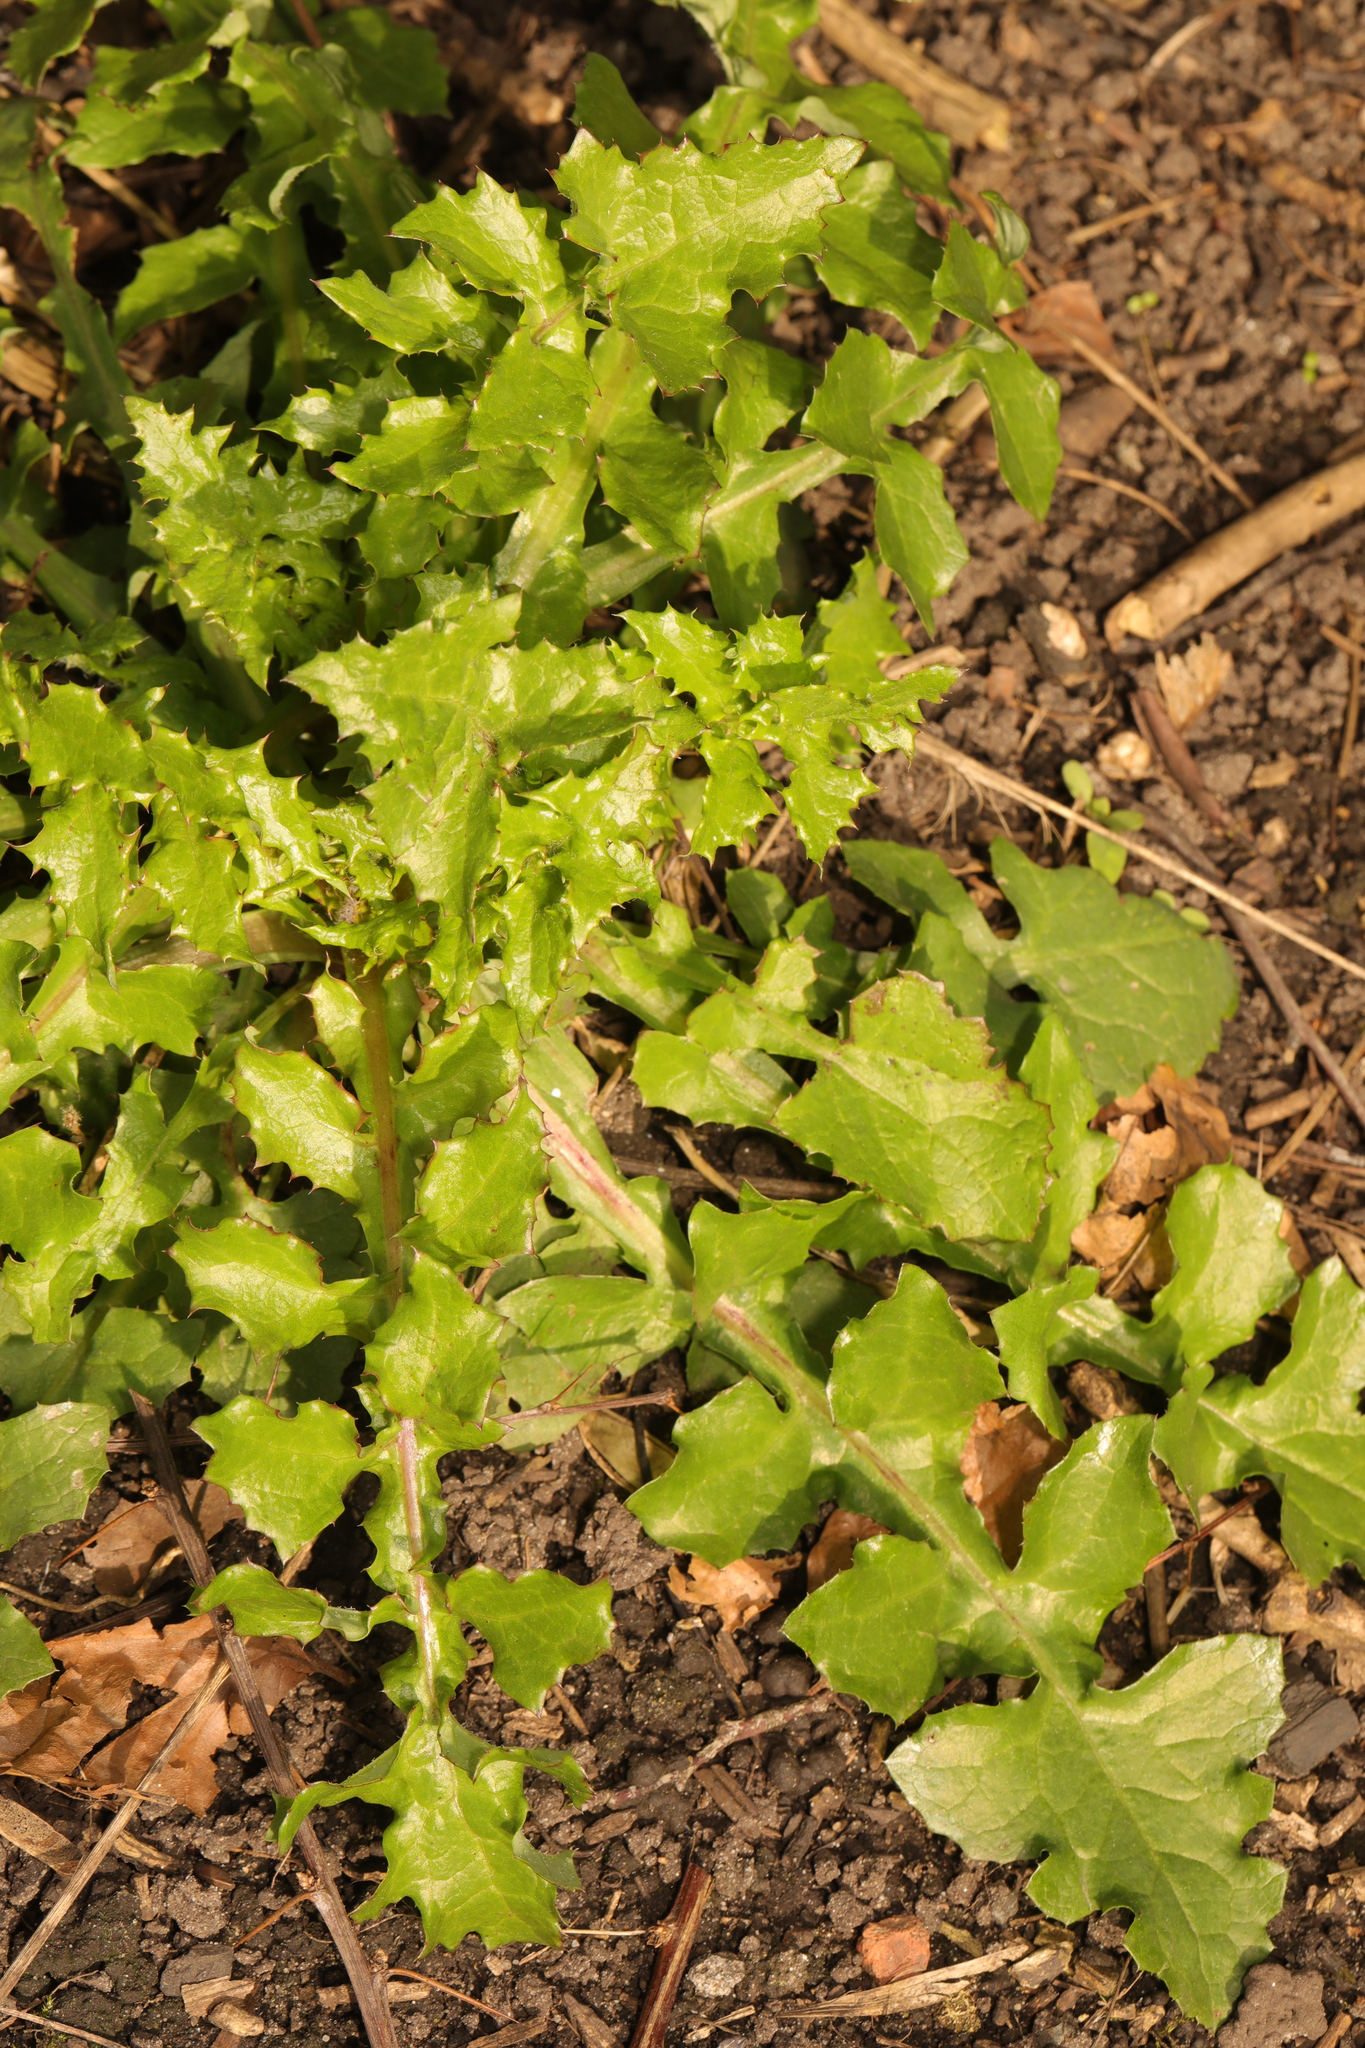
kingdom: Plantae
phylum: Tracheophyta
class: Magnoliopsida
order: Asterales
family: Asteraceae
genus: Sonchus
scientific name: Sonchus oleraceus
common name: Common sowthistle
